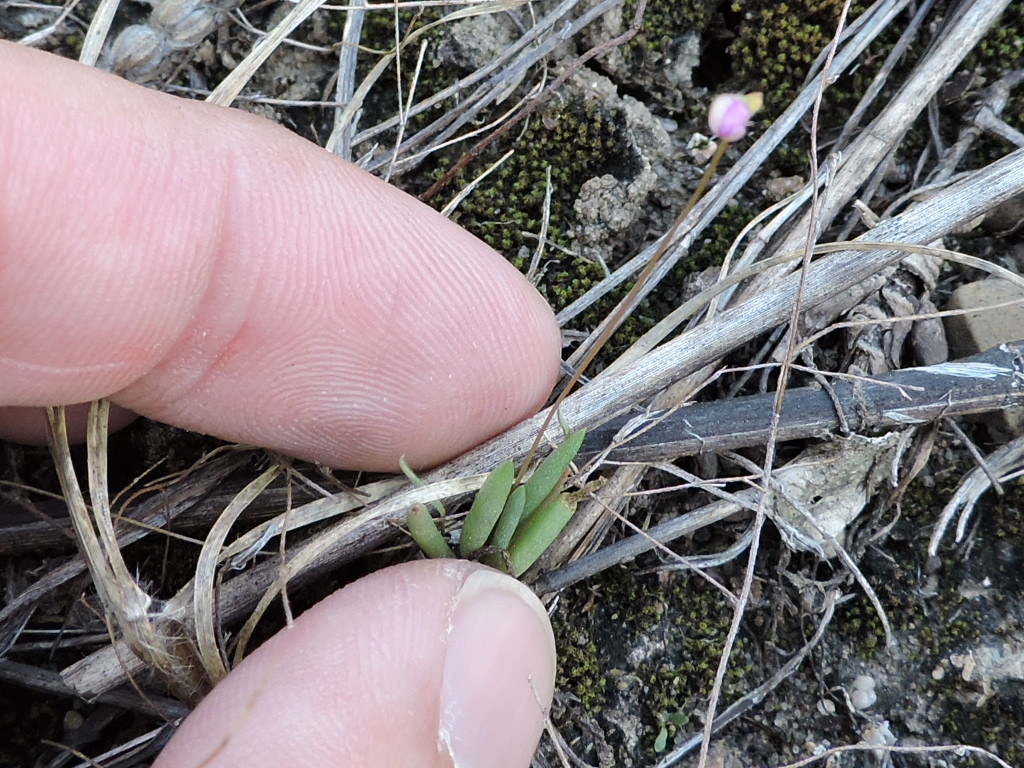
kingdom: Plantae
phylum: Tracheophyta
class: Magnoliopsida
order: Caryophyllales
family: Montiaceae
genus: Phemeranthus
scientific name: Phemeranthus parviflorus
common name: Sunbright
